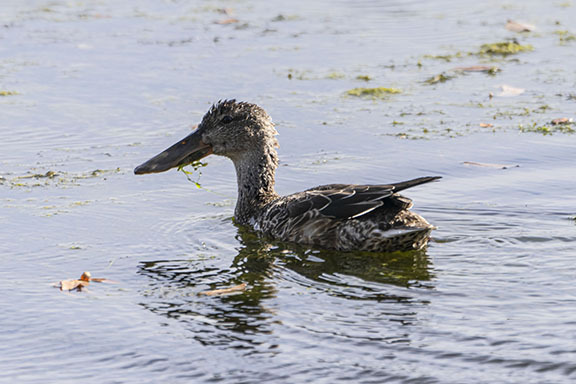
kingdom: Animalia
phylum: Chordata
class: Aves
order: Anseriformes
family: Anatidae
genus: Spatula
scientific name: Spatula clypeata
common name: Northern shoveler
